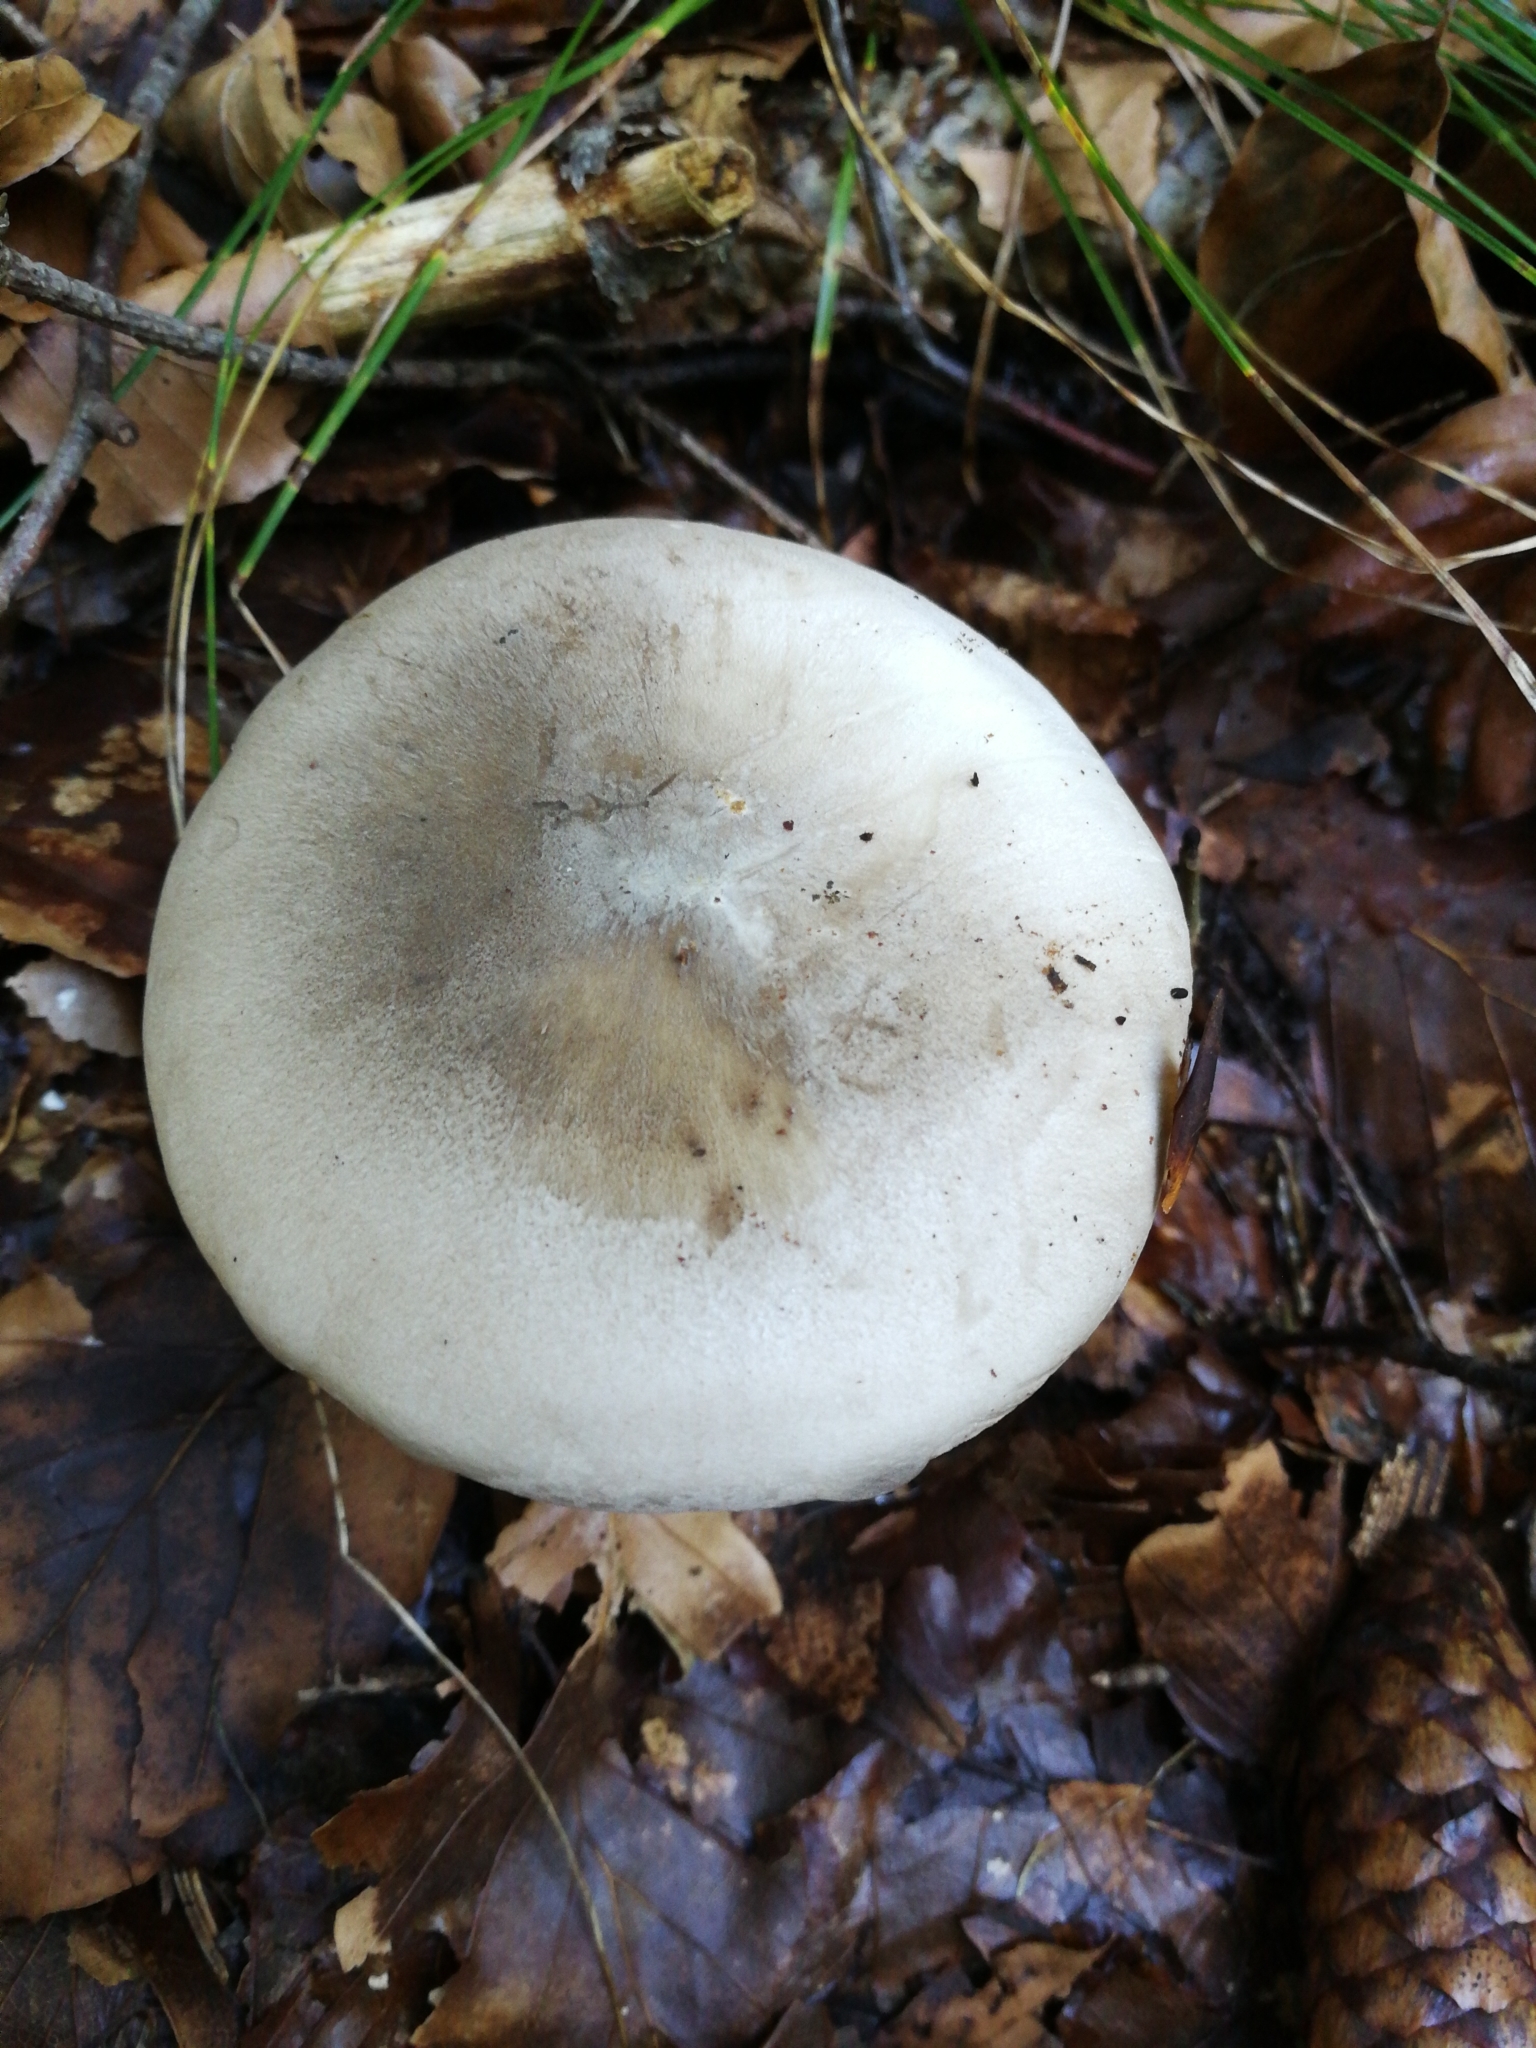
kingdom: Fungi
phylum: Basidiomycota
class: Agaricomycetes
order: Agaricales
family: Tricholomataceae
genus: Clitocybe
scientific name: Clitocybe nebularis
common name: Clouded agaric
